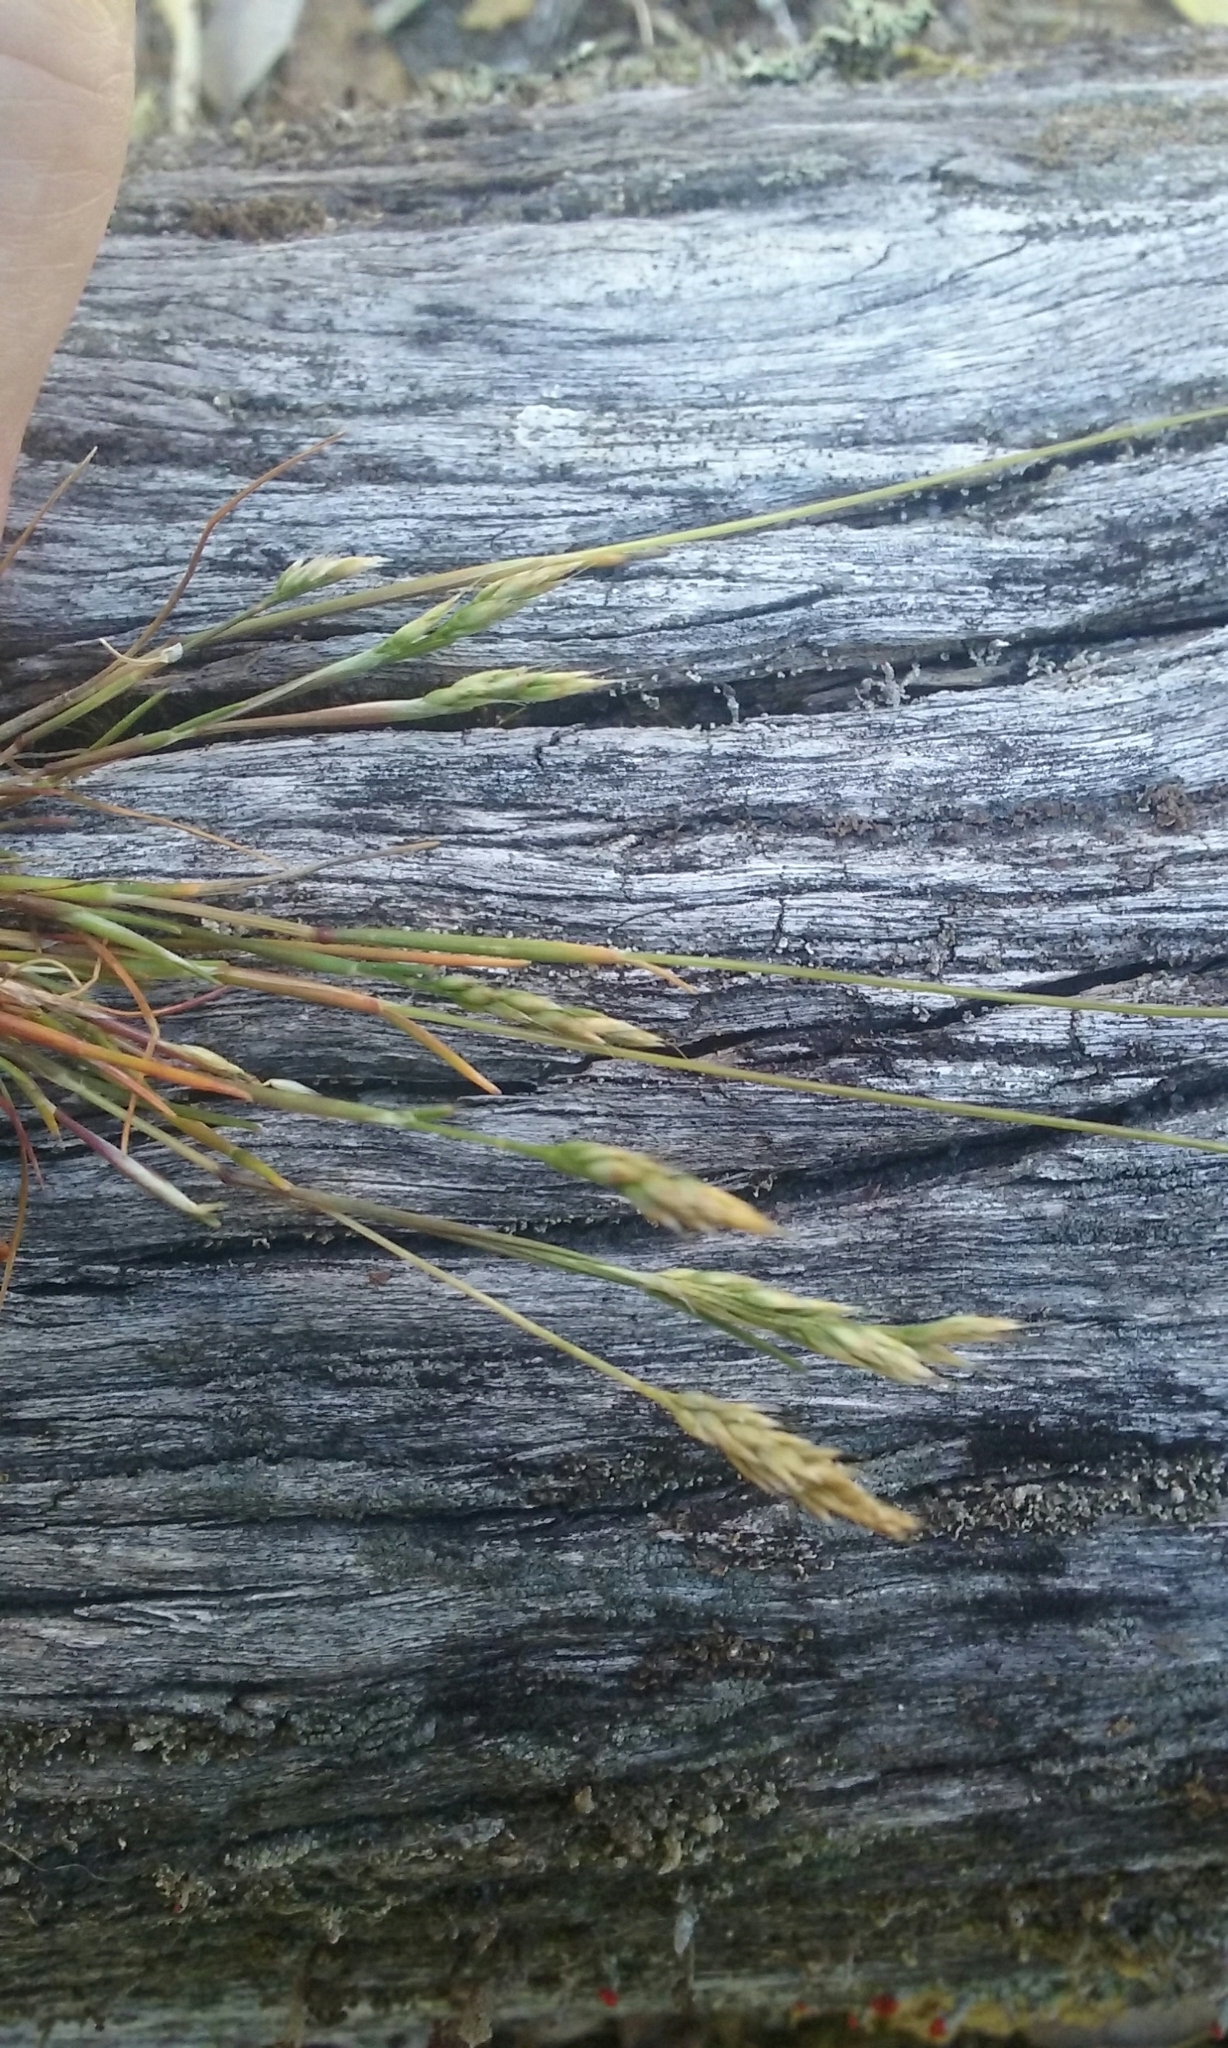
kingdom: Plantae
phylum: Tracheophyta
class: Liliopsida
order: Poales
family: Poaceae
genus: Aira
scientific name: Aira praecox
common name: Early hair-grass
